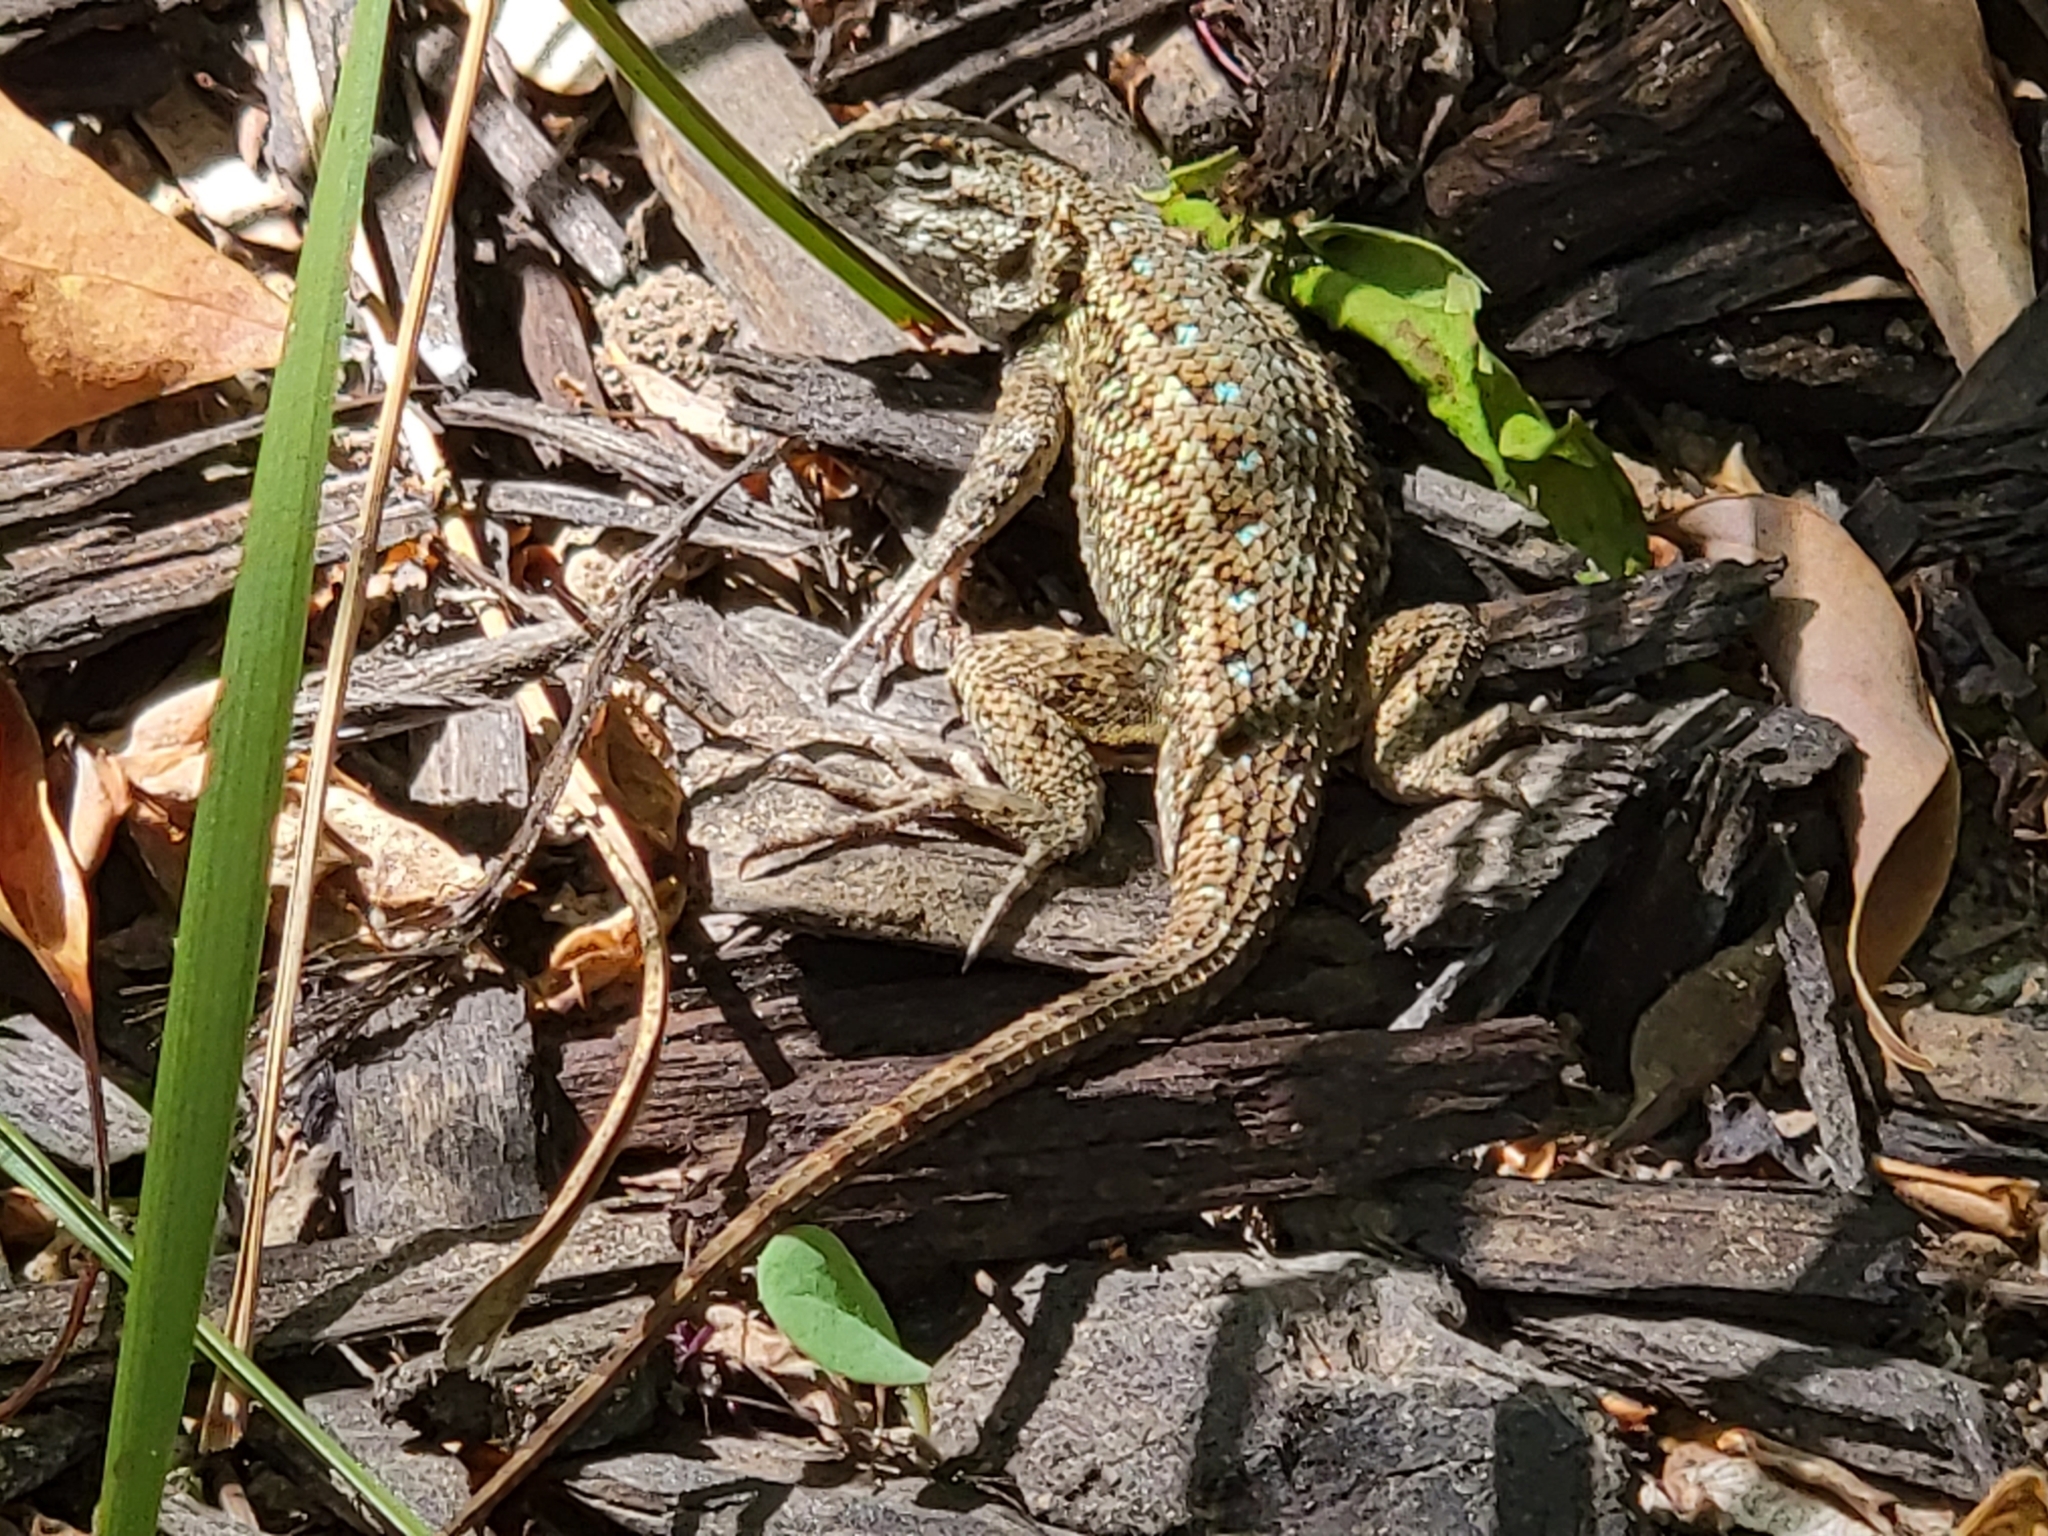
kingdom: Animalia
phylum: Chordata
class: Squamata
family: Phrynosomatidae
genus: Sceloporus
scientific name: Sceloporus occidentalis
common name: Western fence lizard
